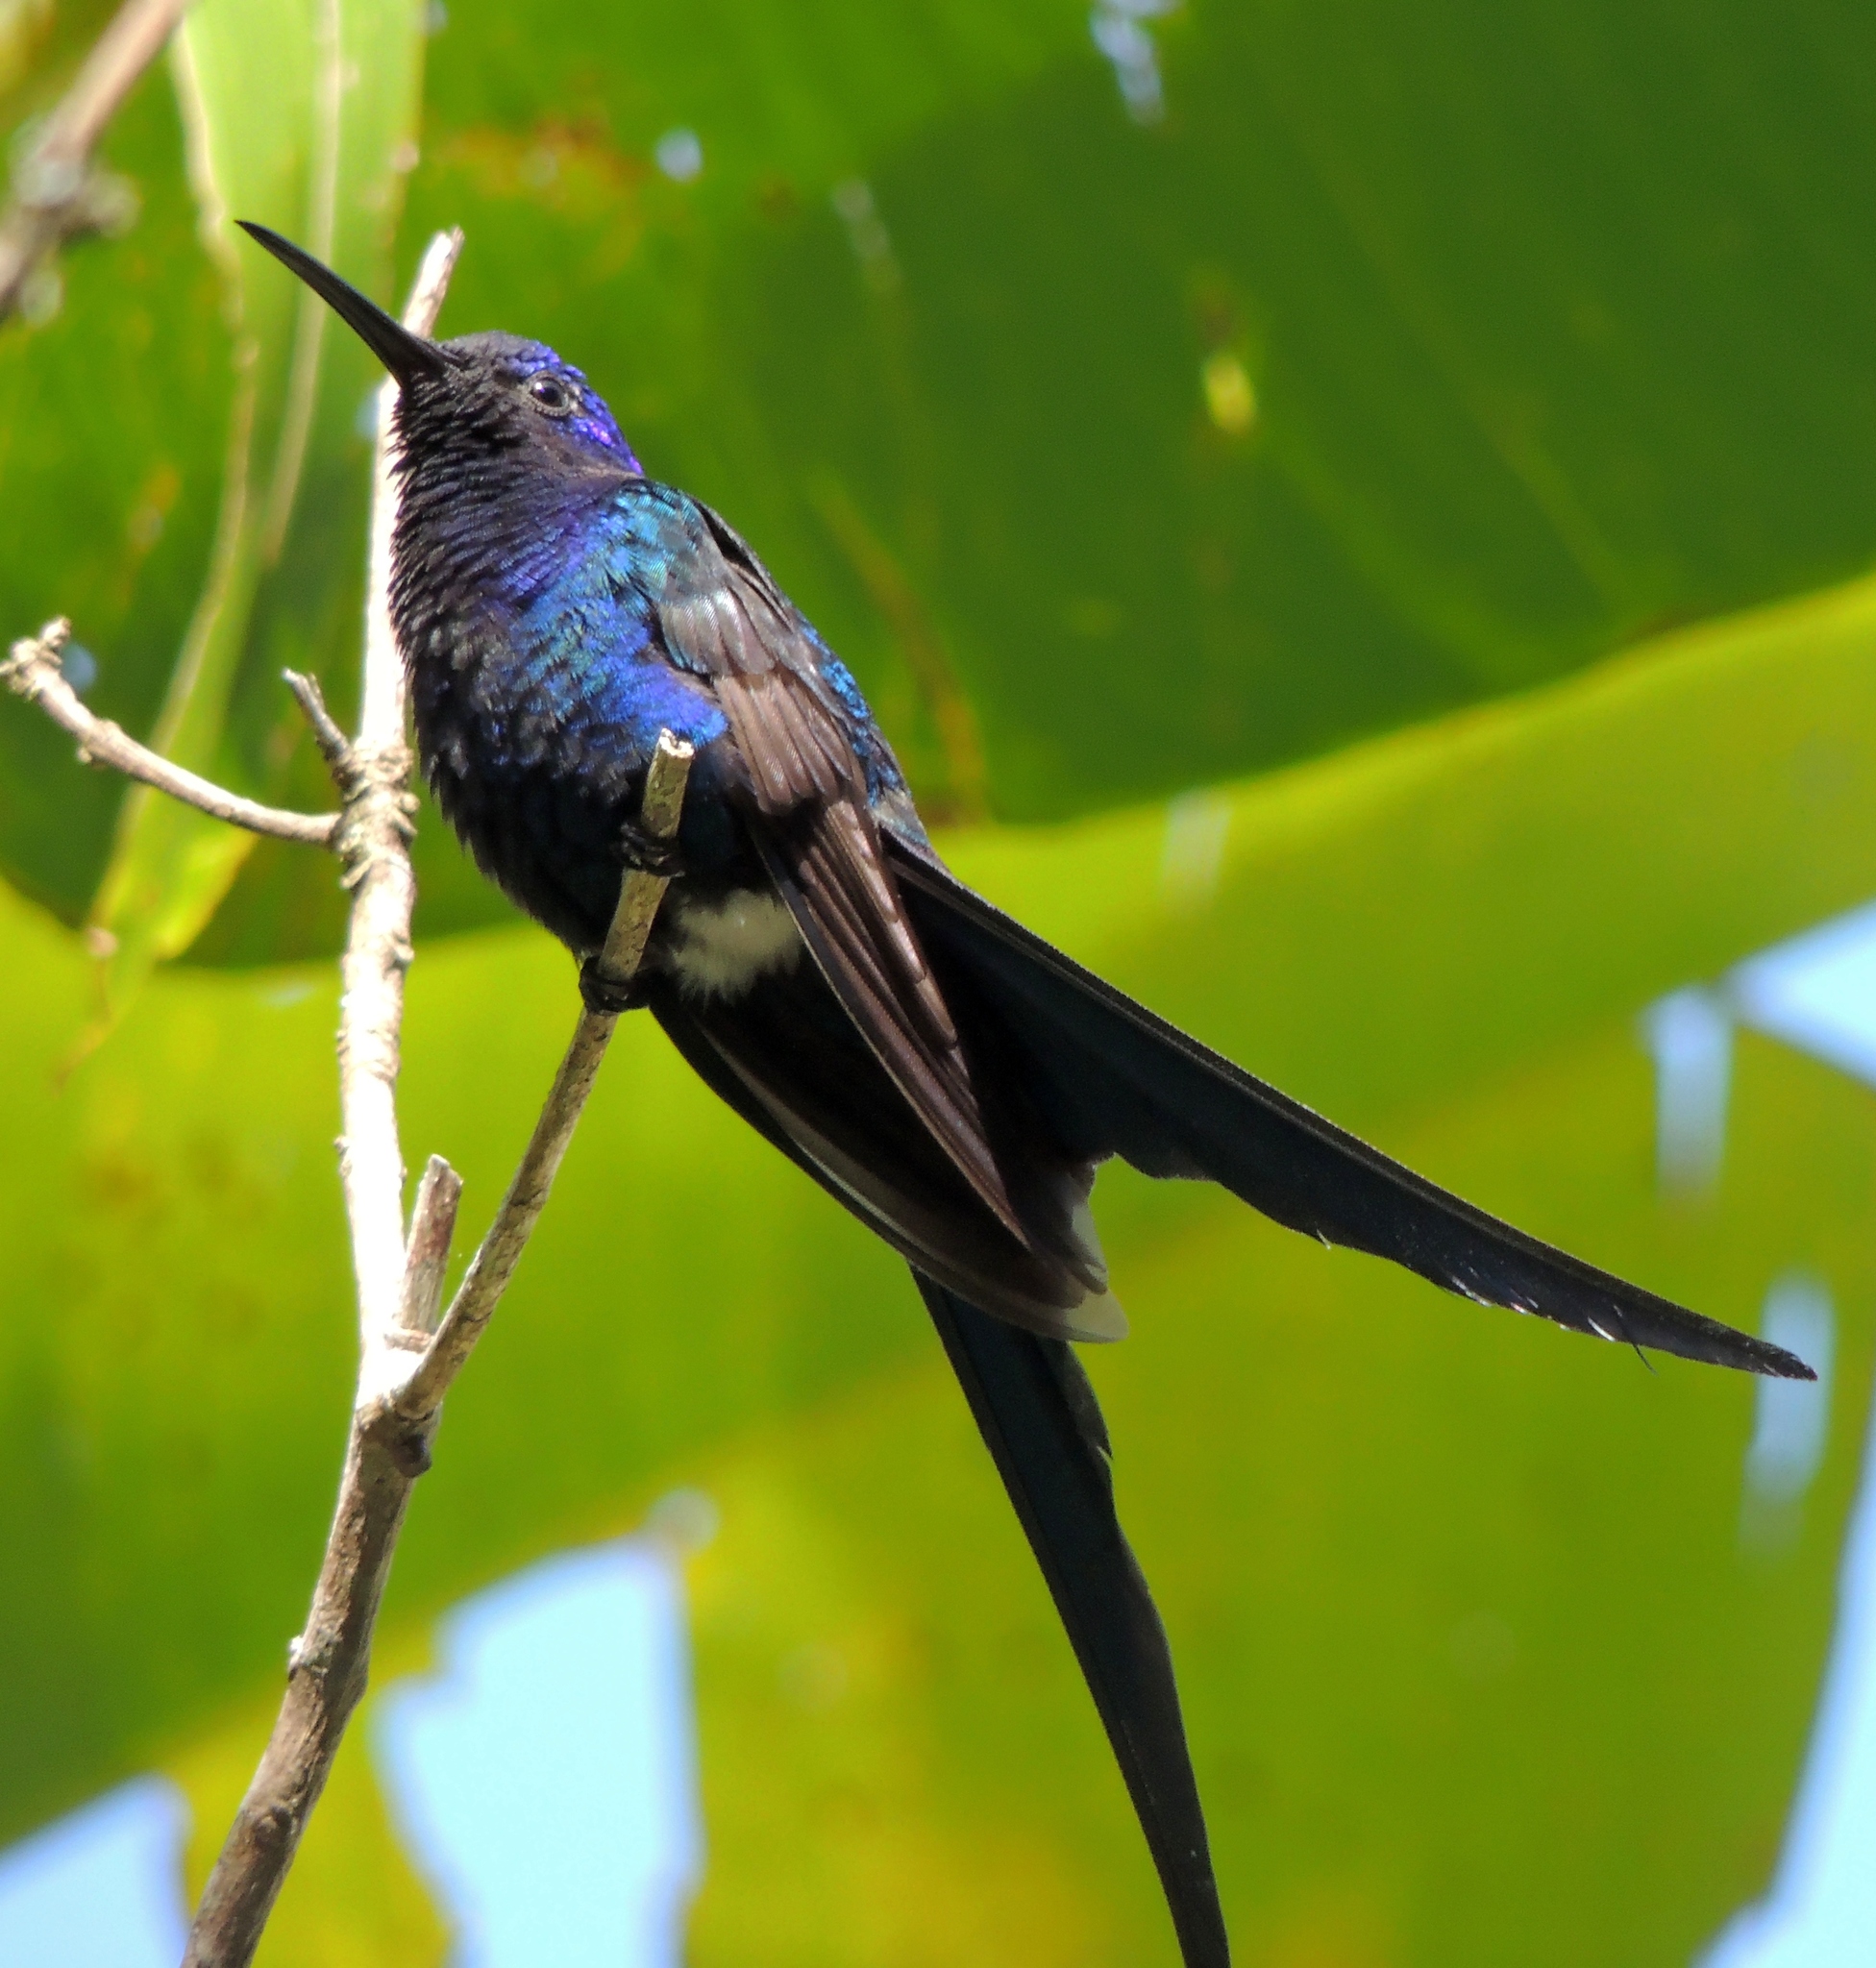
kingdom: Animalia
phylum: Chordata
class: Aves
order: Apodiformes
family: Trochilidae
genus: Eupetomena
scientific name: Eupetomena macroura
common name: Swallow-tailed hummingbird
